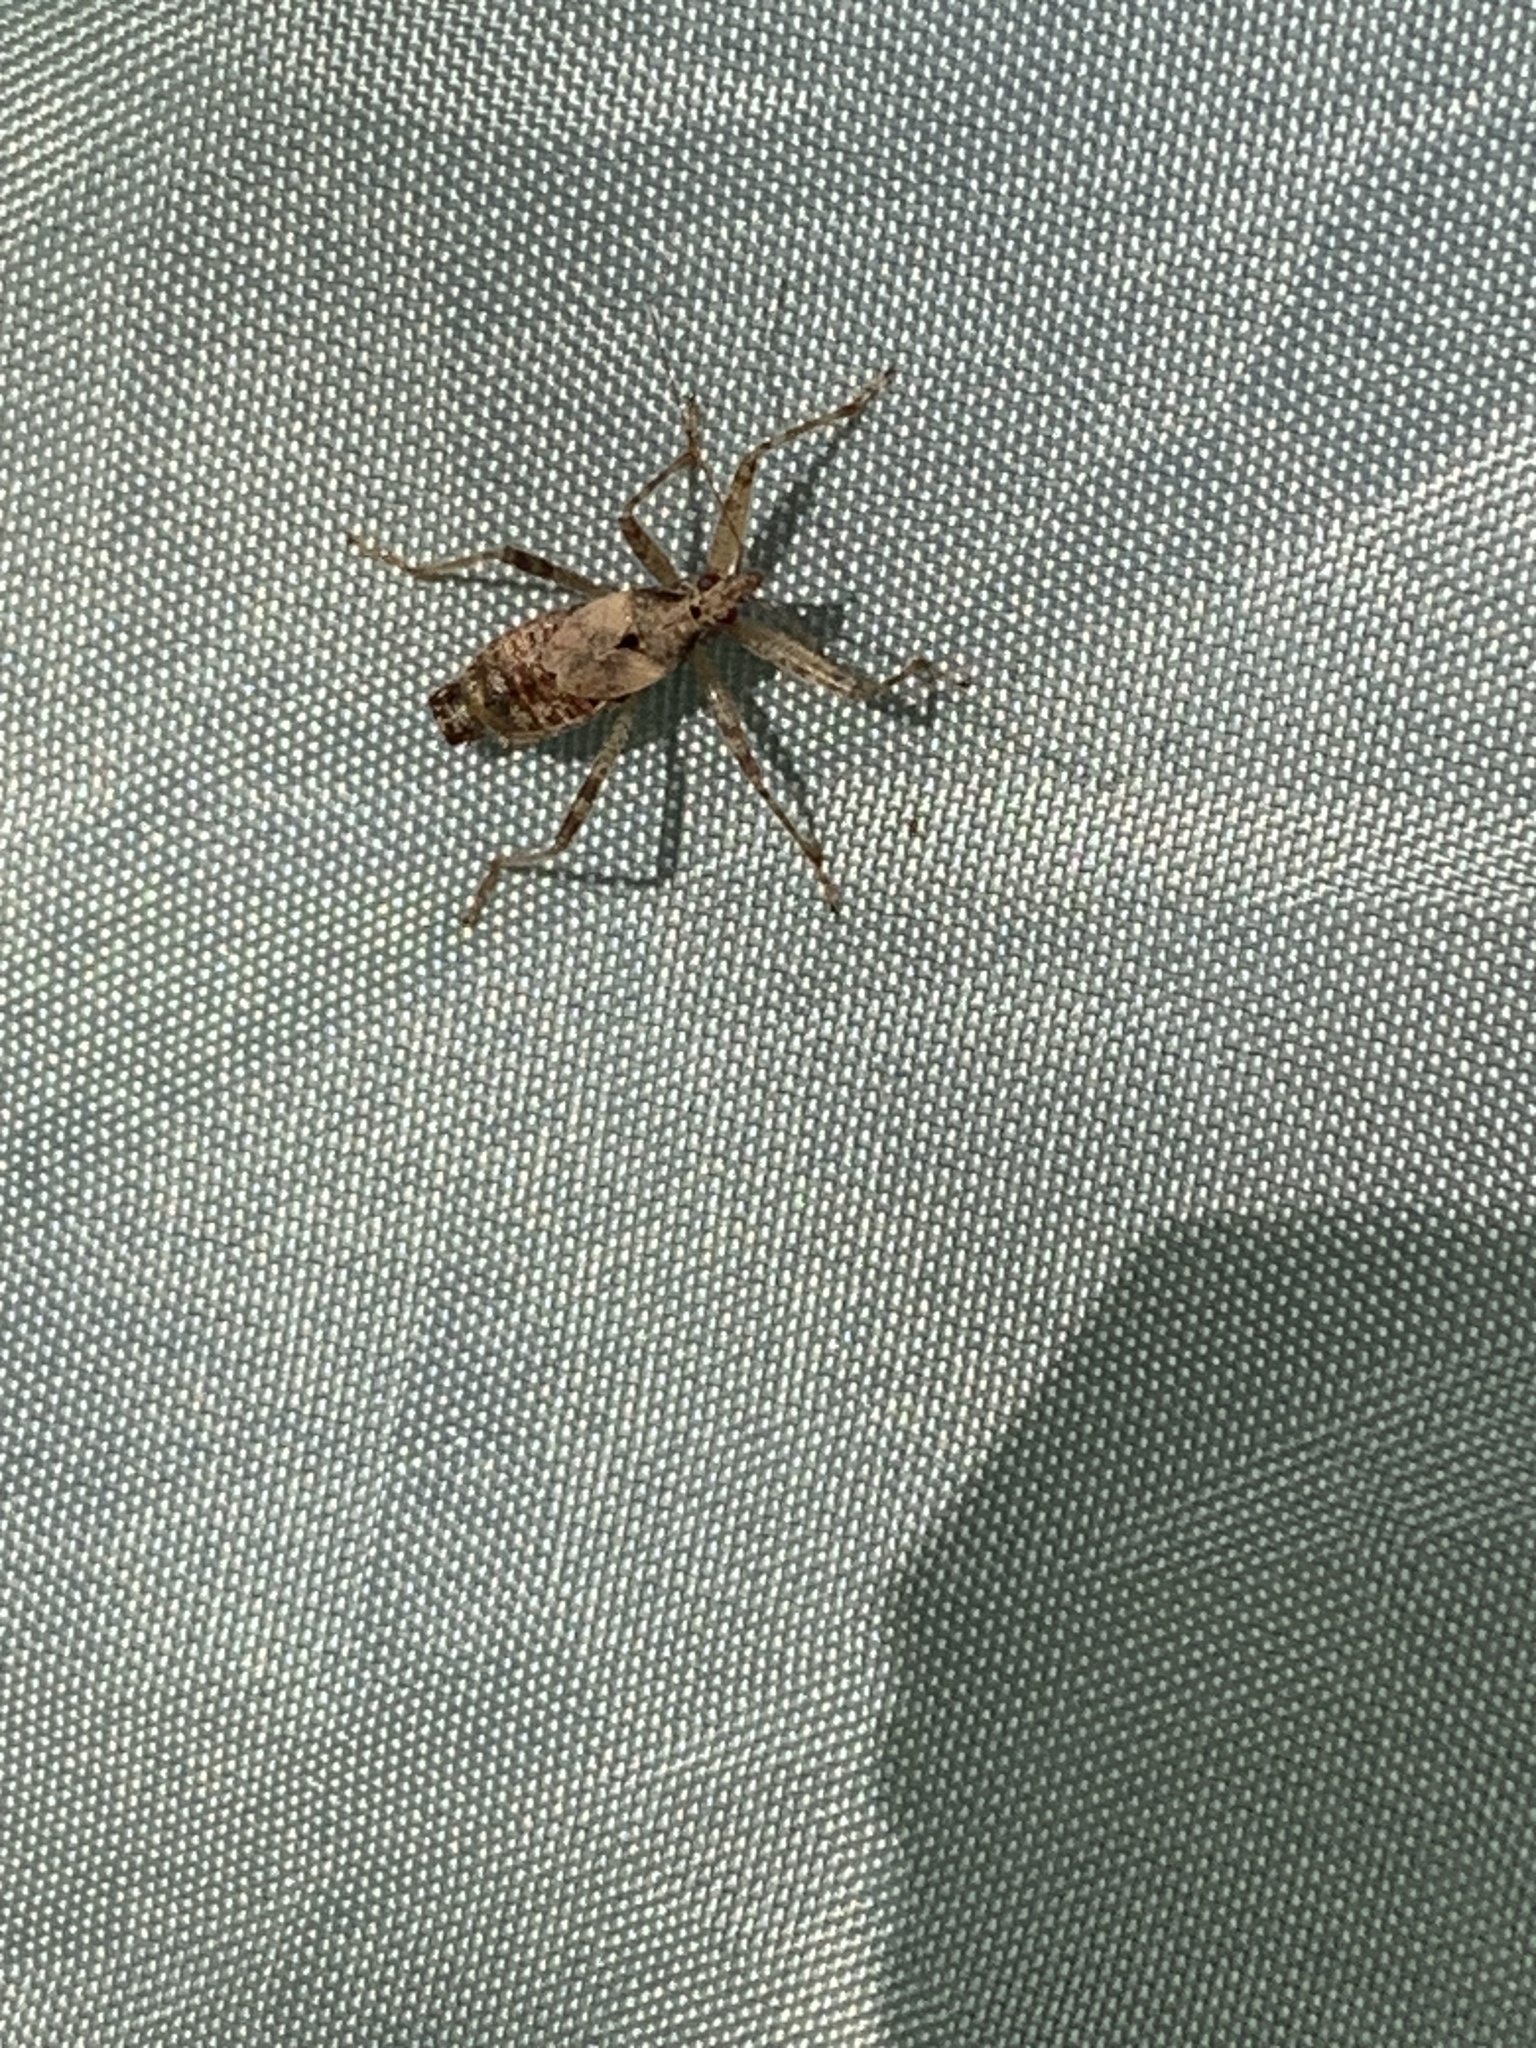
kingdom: Animalia
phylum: Arthropoda
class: Insecta
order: Hemiptera
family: Nabidae
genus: Himacerus
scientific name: Himacerus apterus
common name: Tree damsel bug
